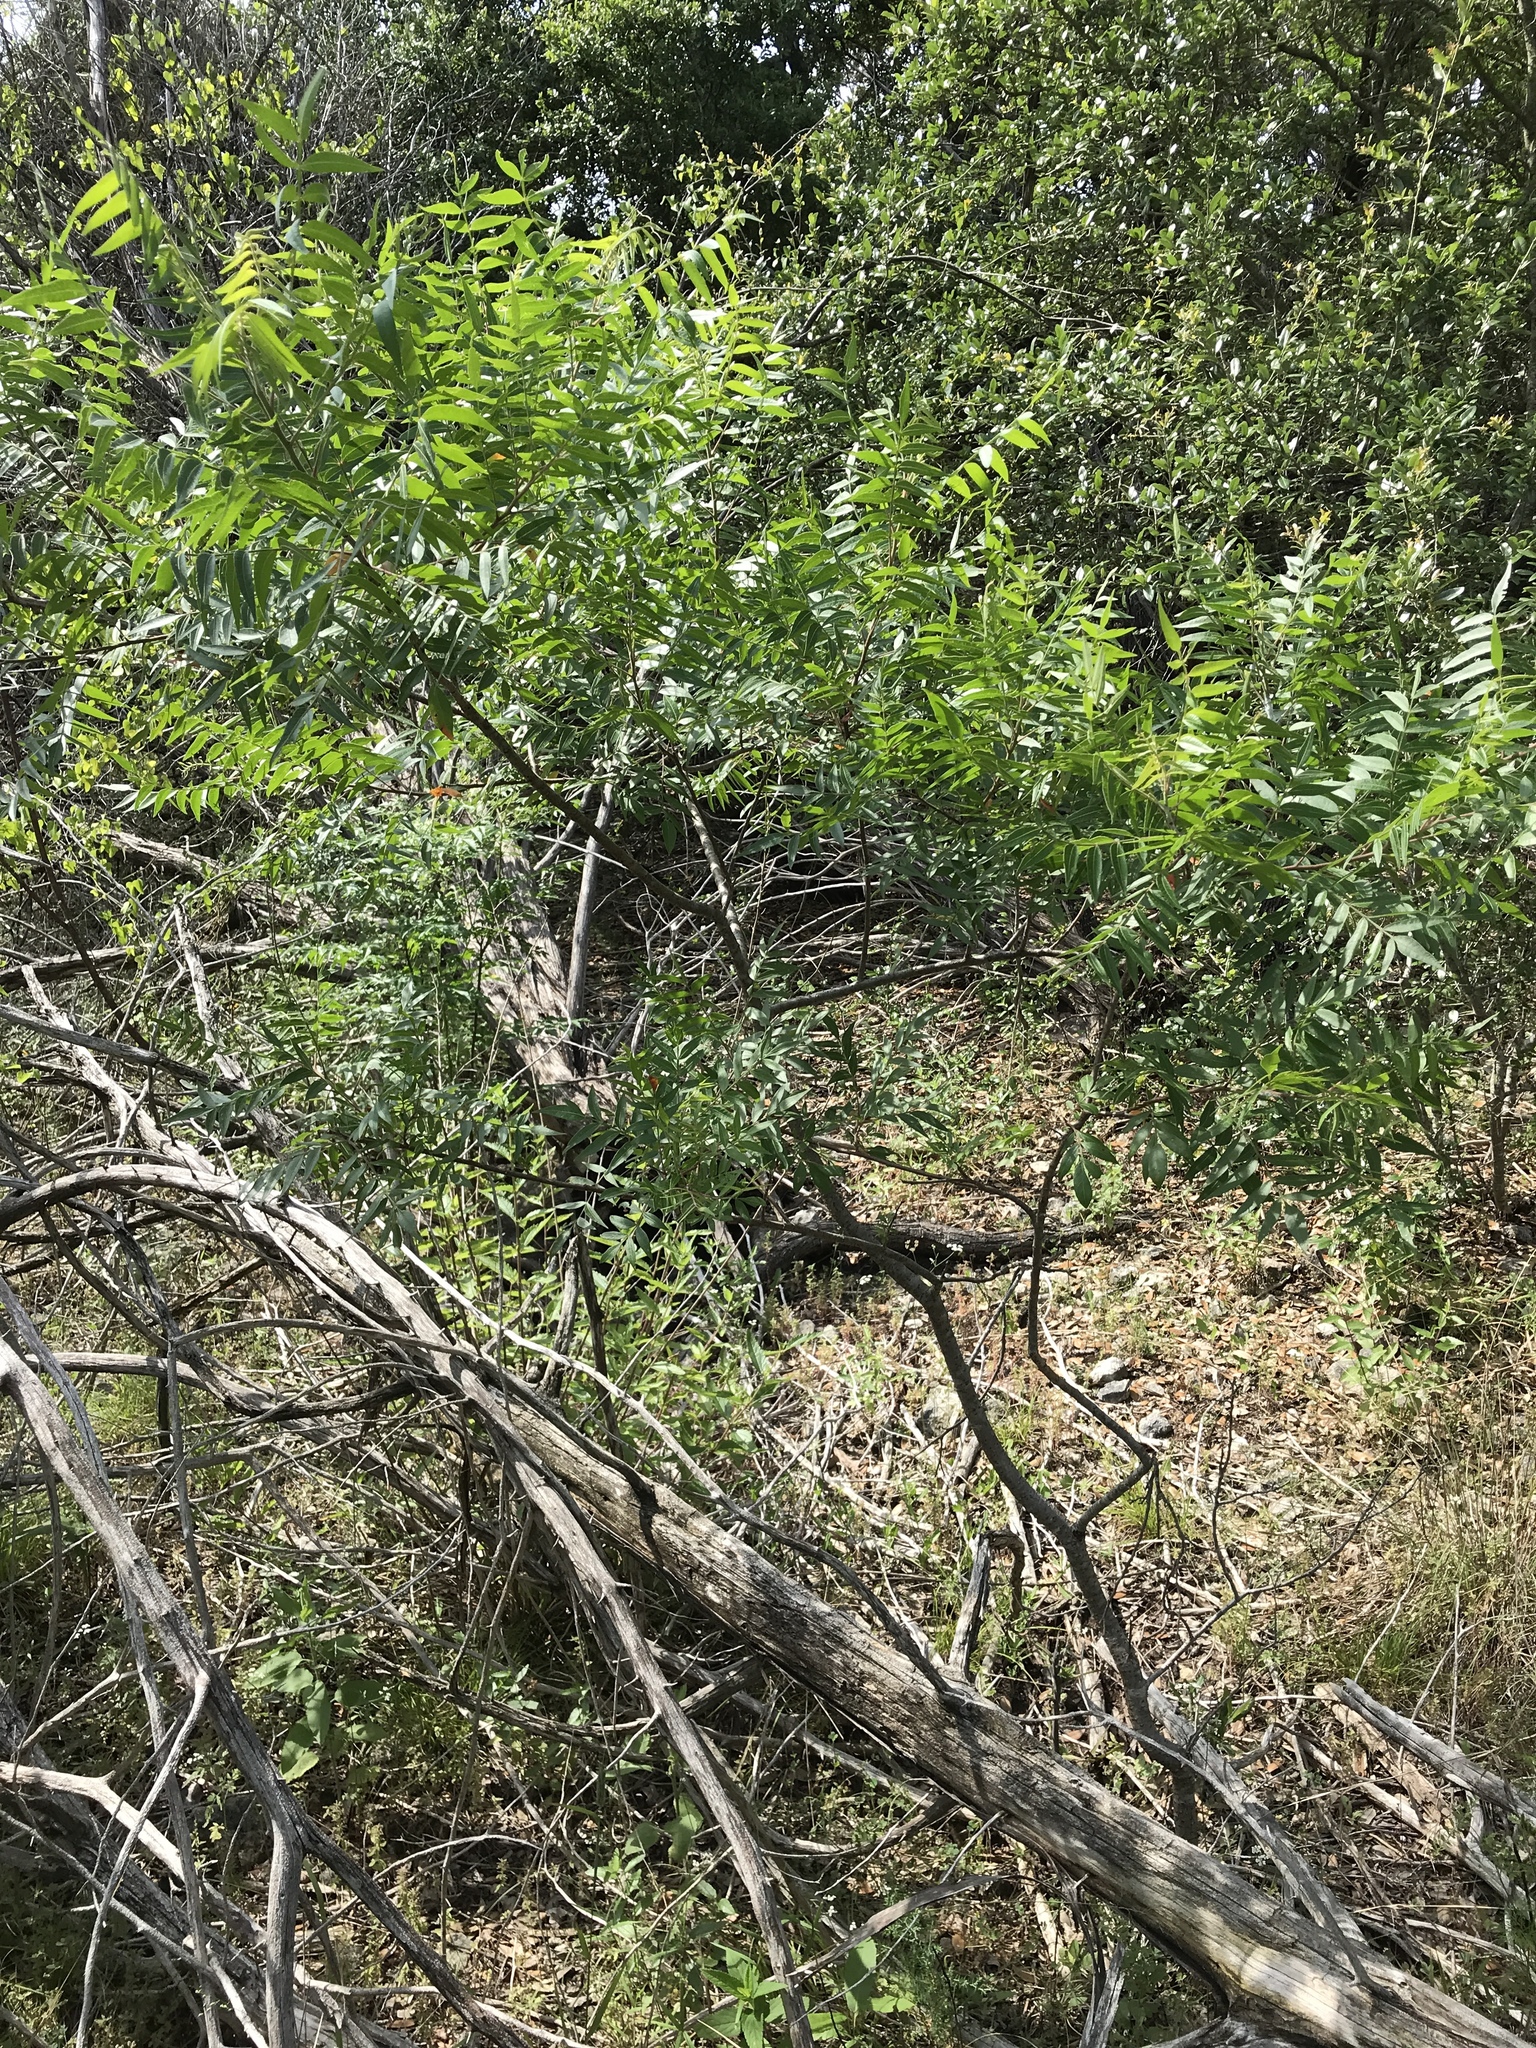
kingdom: Plantae
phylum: Tracheophyta
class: Magnoliopsida
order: Sapindales
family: Anacardiaceae
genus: Rhus
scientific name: Rhus lanceolata
